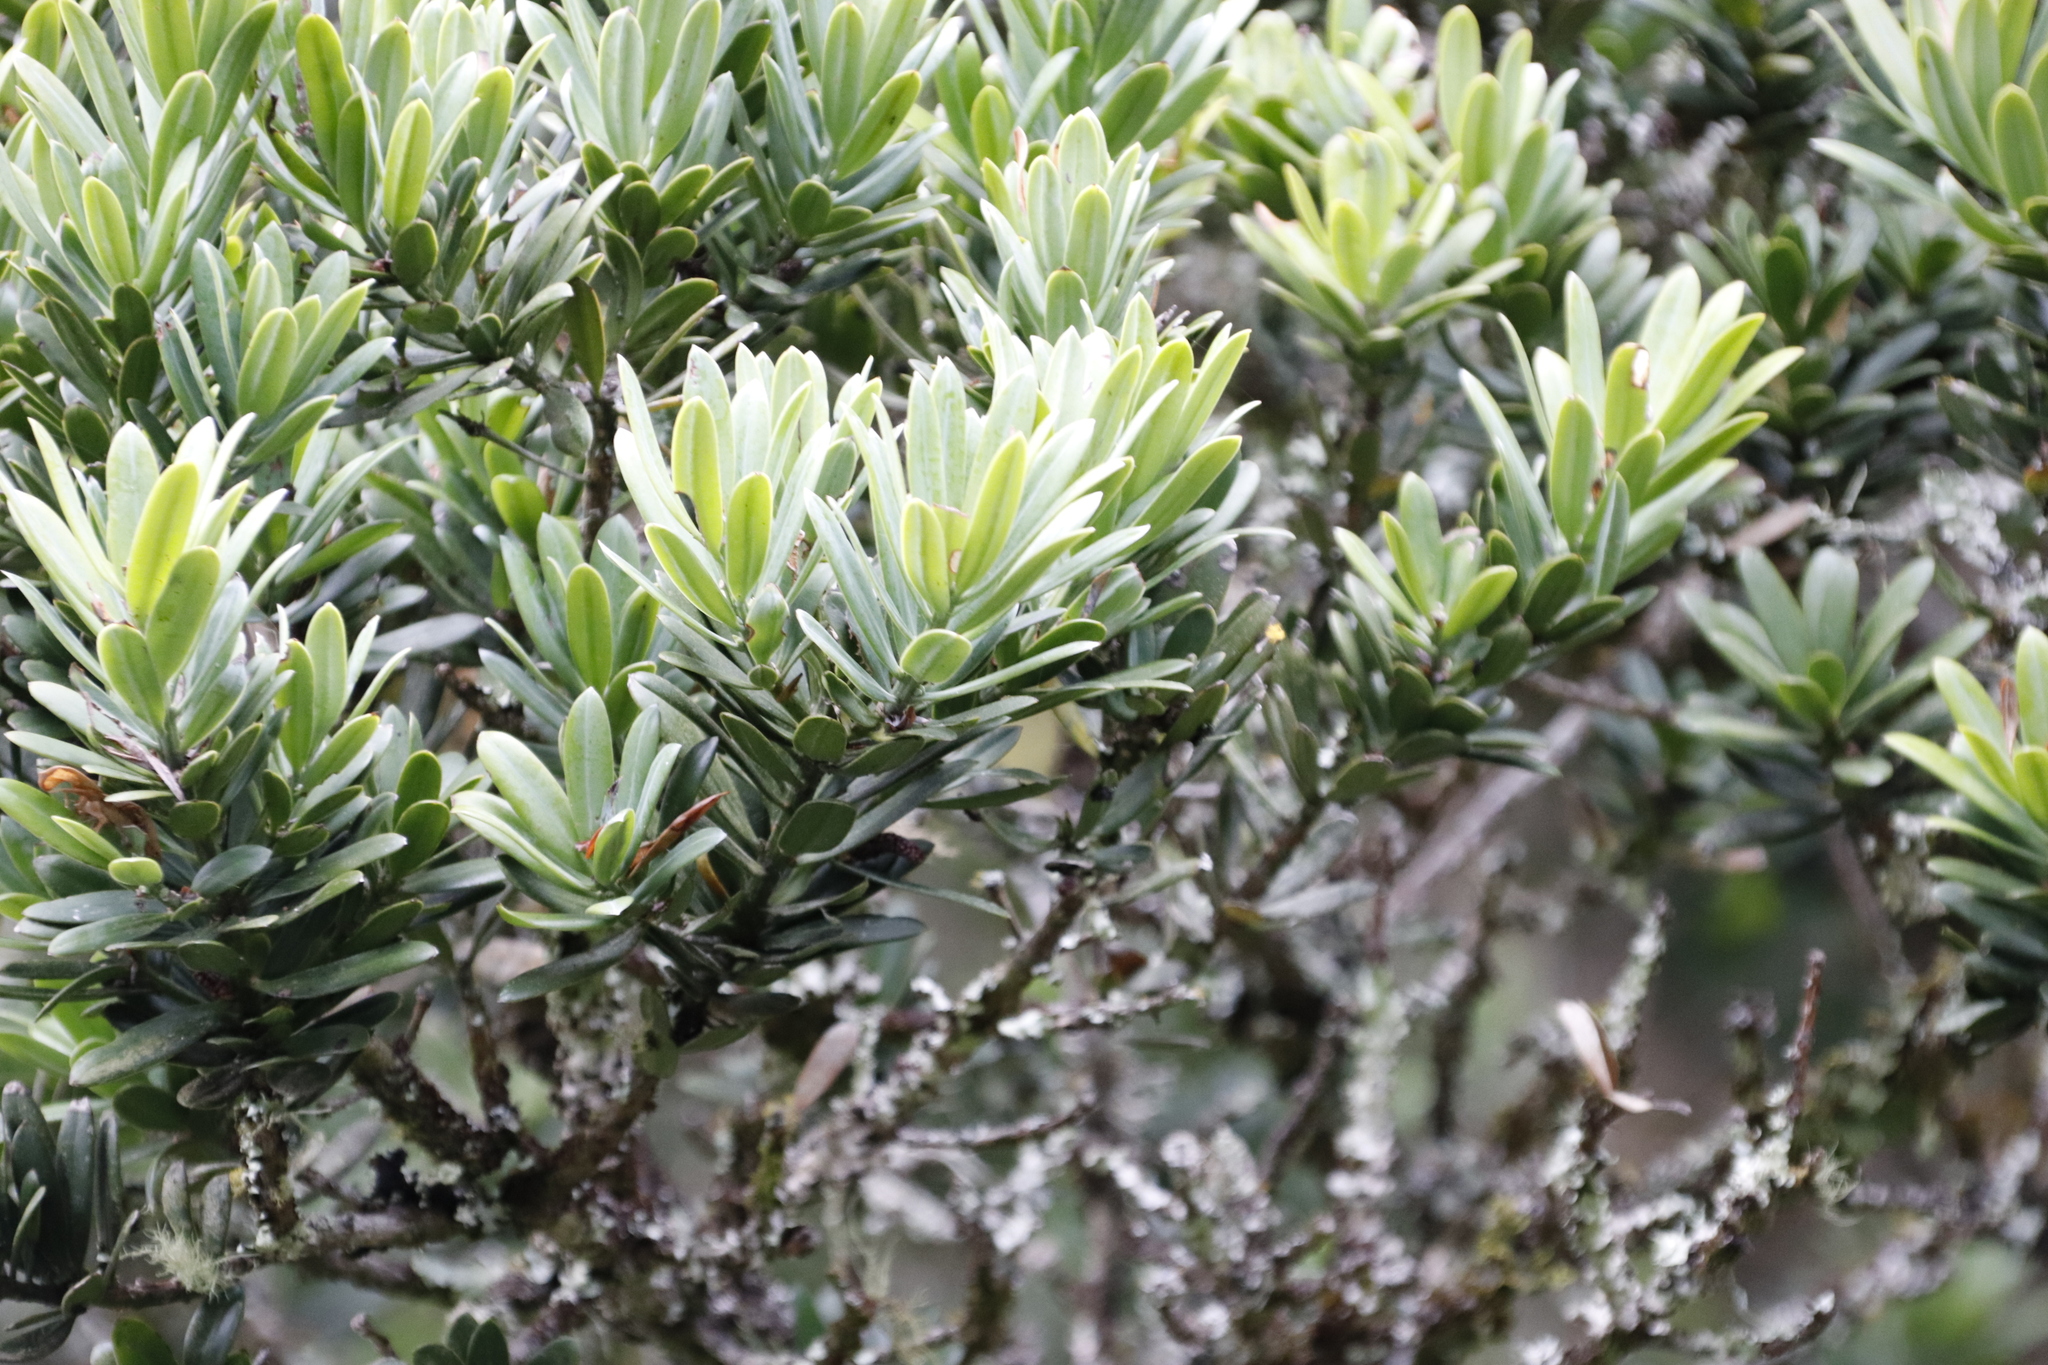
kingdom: Plantae
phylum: Tracheophyta
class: Pinopsida
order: Pinales
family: Podocarpaceae
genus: Podocarpus
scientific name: Podocarpus latifolius
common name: True yellowwood
